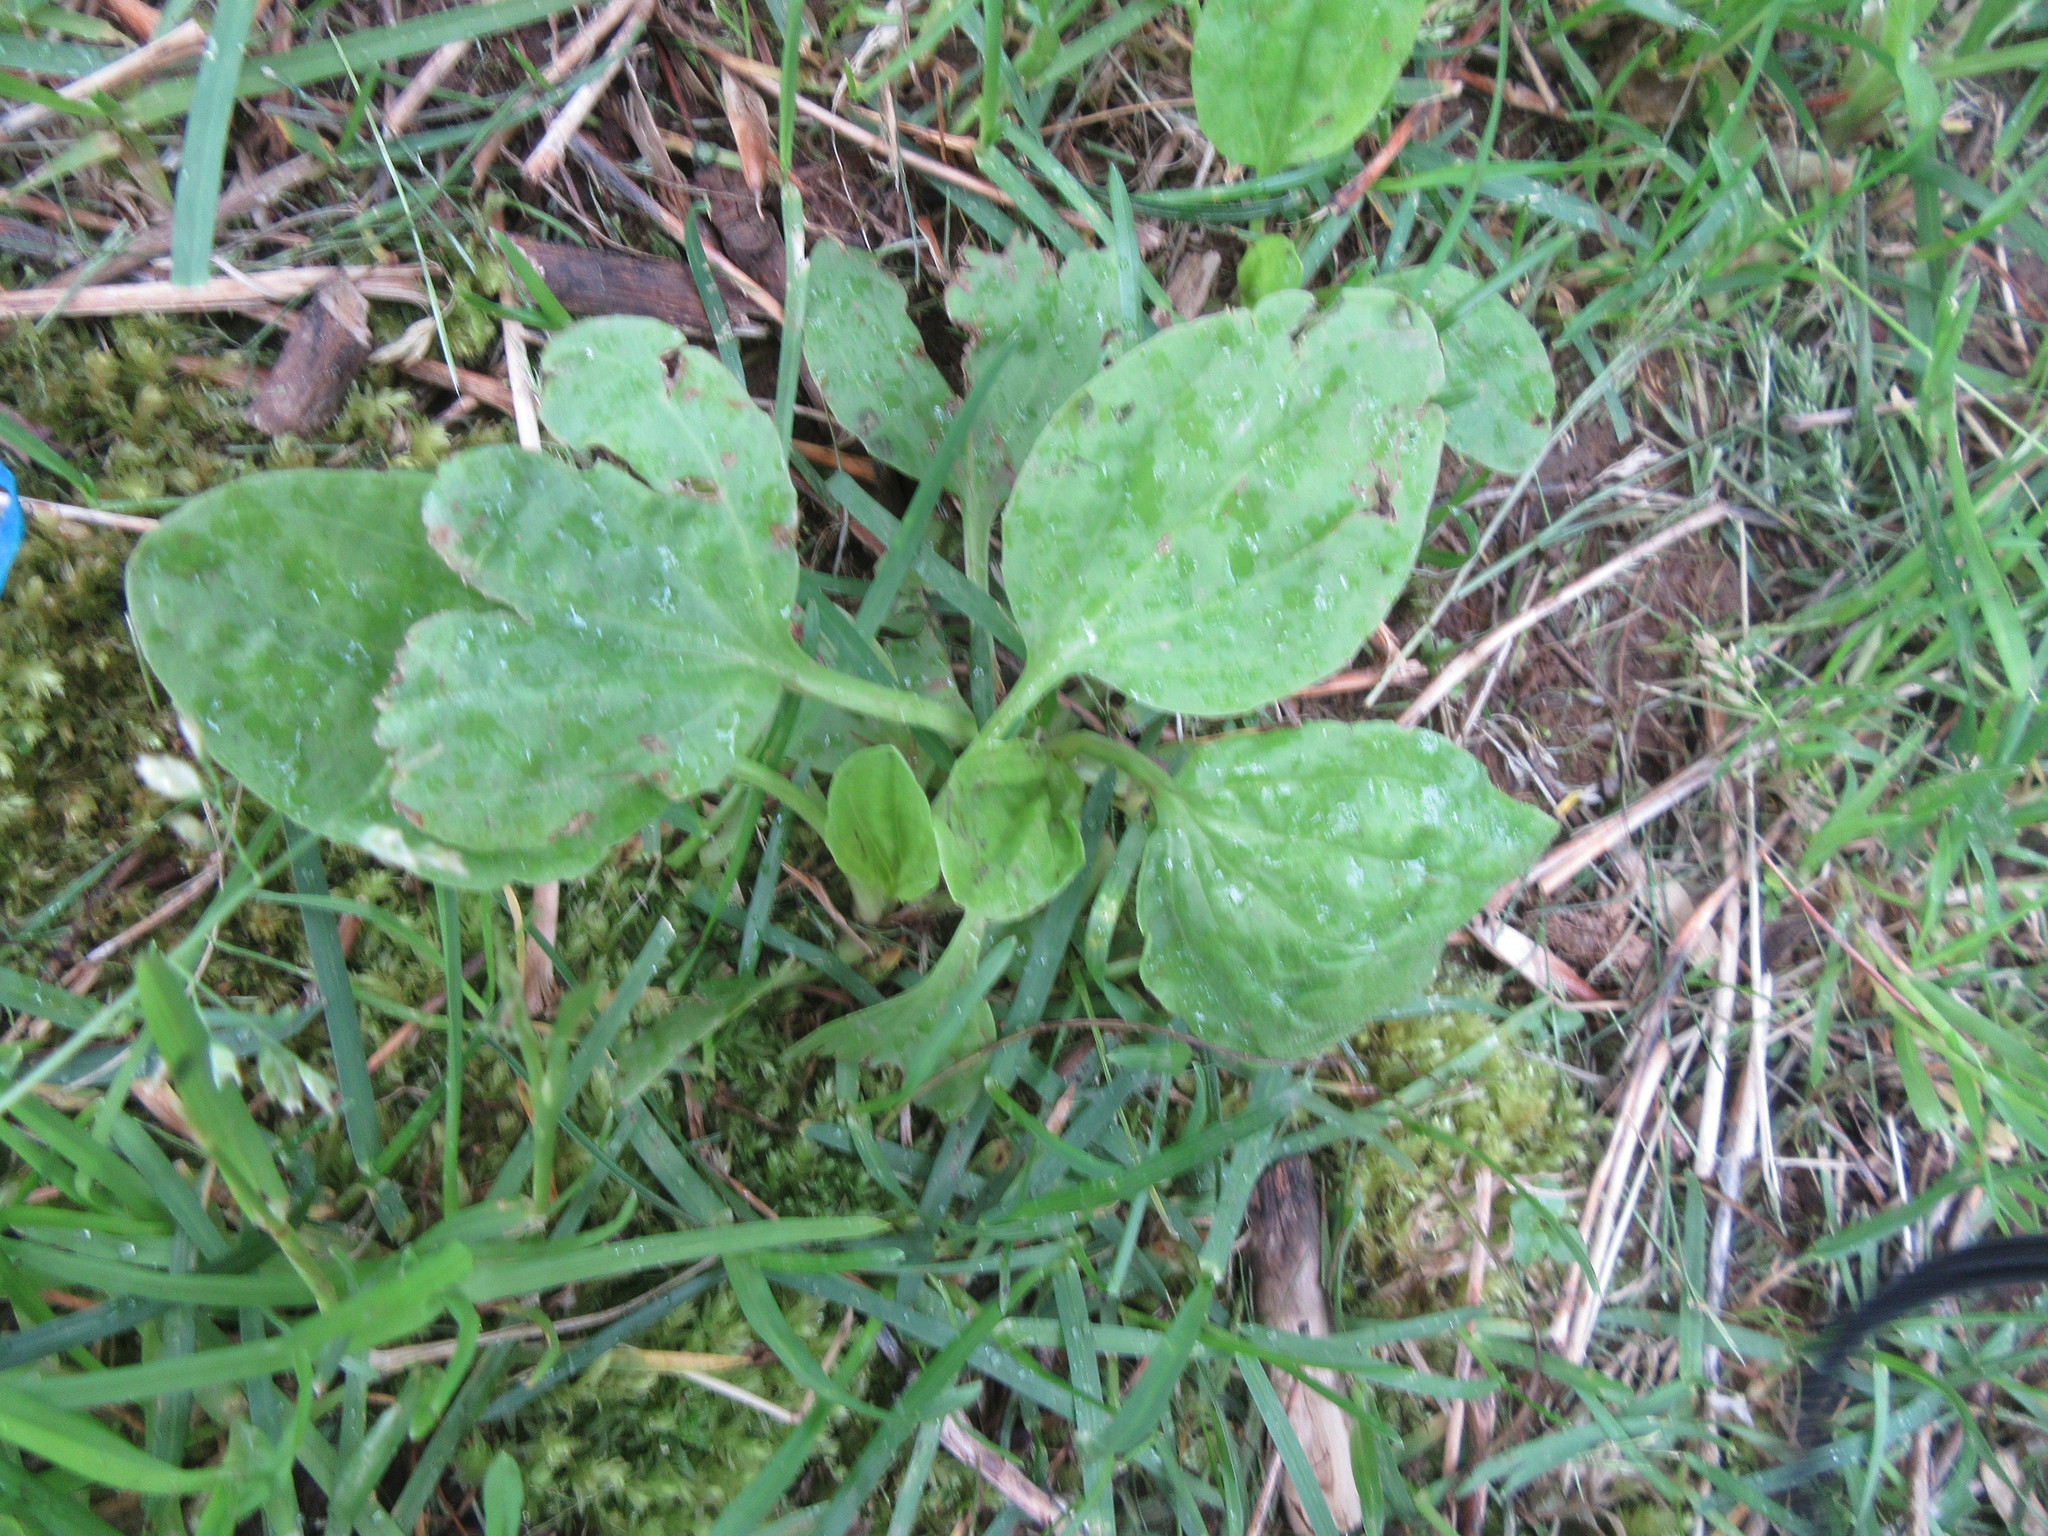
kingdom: Plantae
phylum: Tracheophyta
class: Magnoliopsida
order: Lamiales
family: Plantaginaceae
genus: Plantago
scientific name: Plantago major
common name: Common plantain
